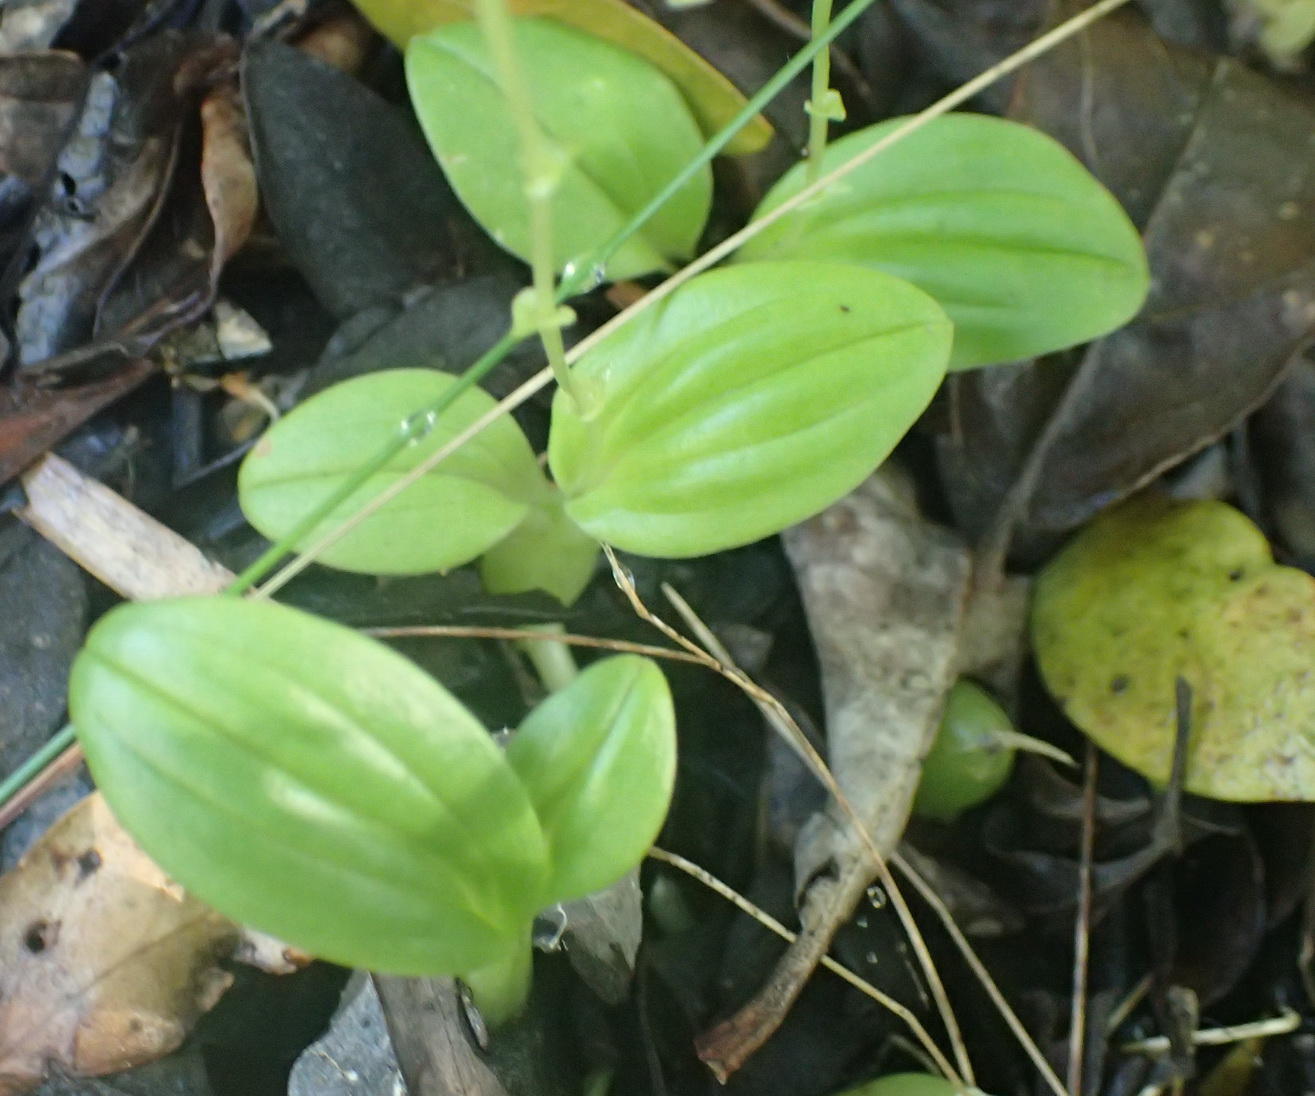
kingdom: Plantae
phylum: Tracheophyta
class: Liliopsida
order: Asparagales
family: Orchidaceae
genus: Liparis
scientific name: Liparis remota
